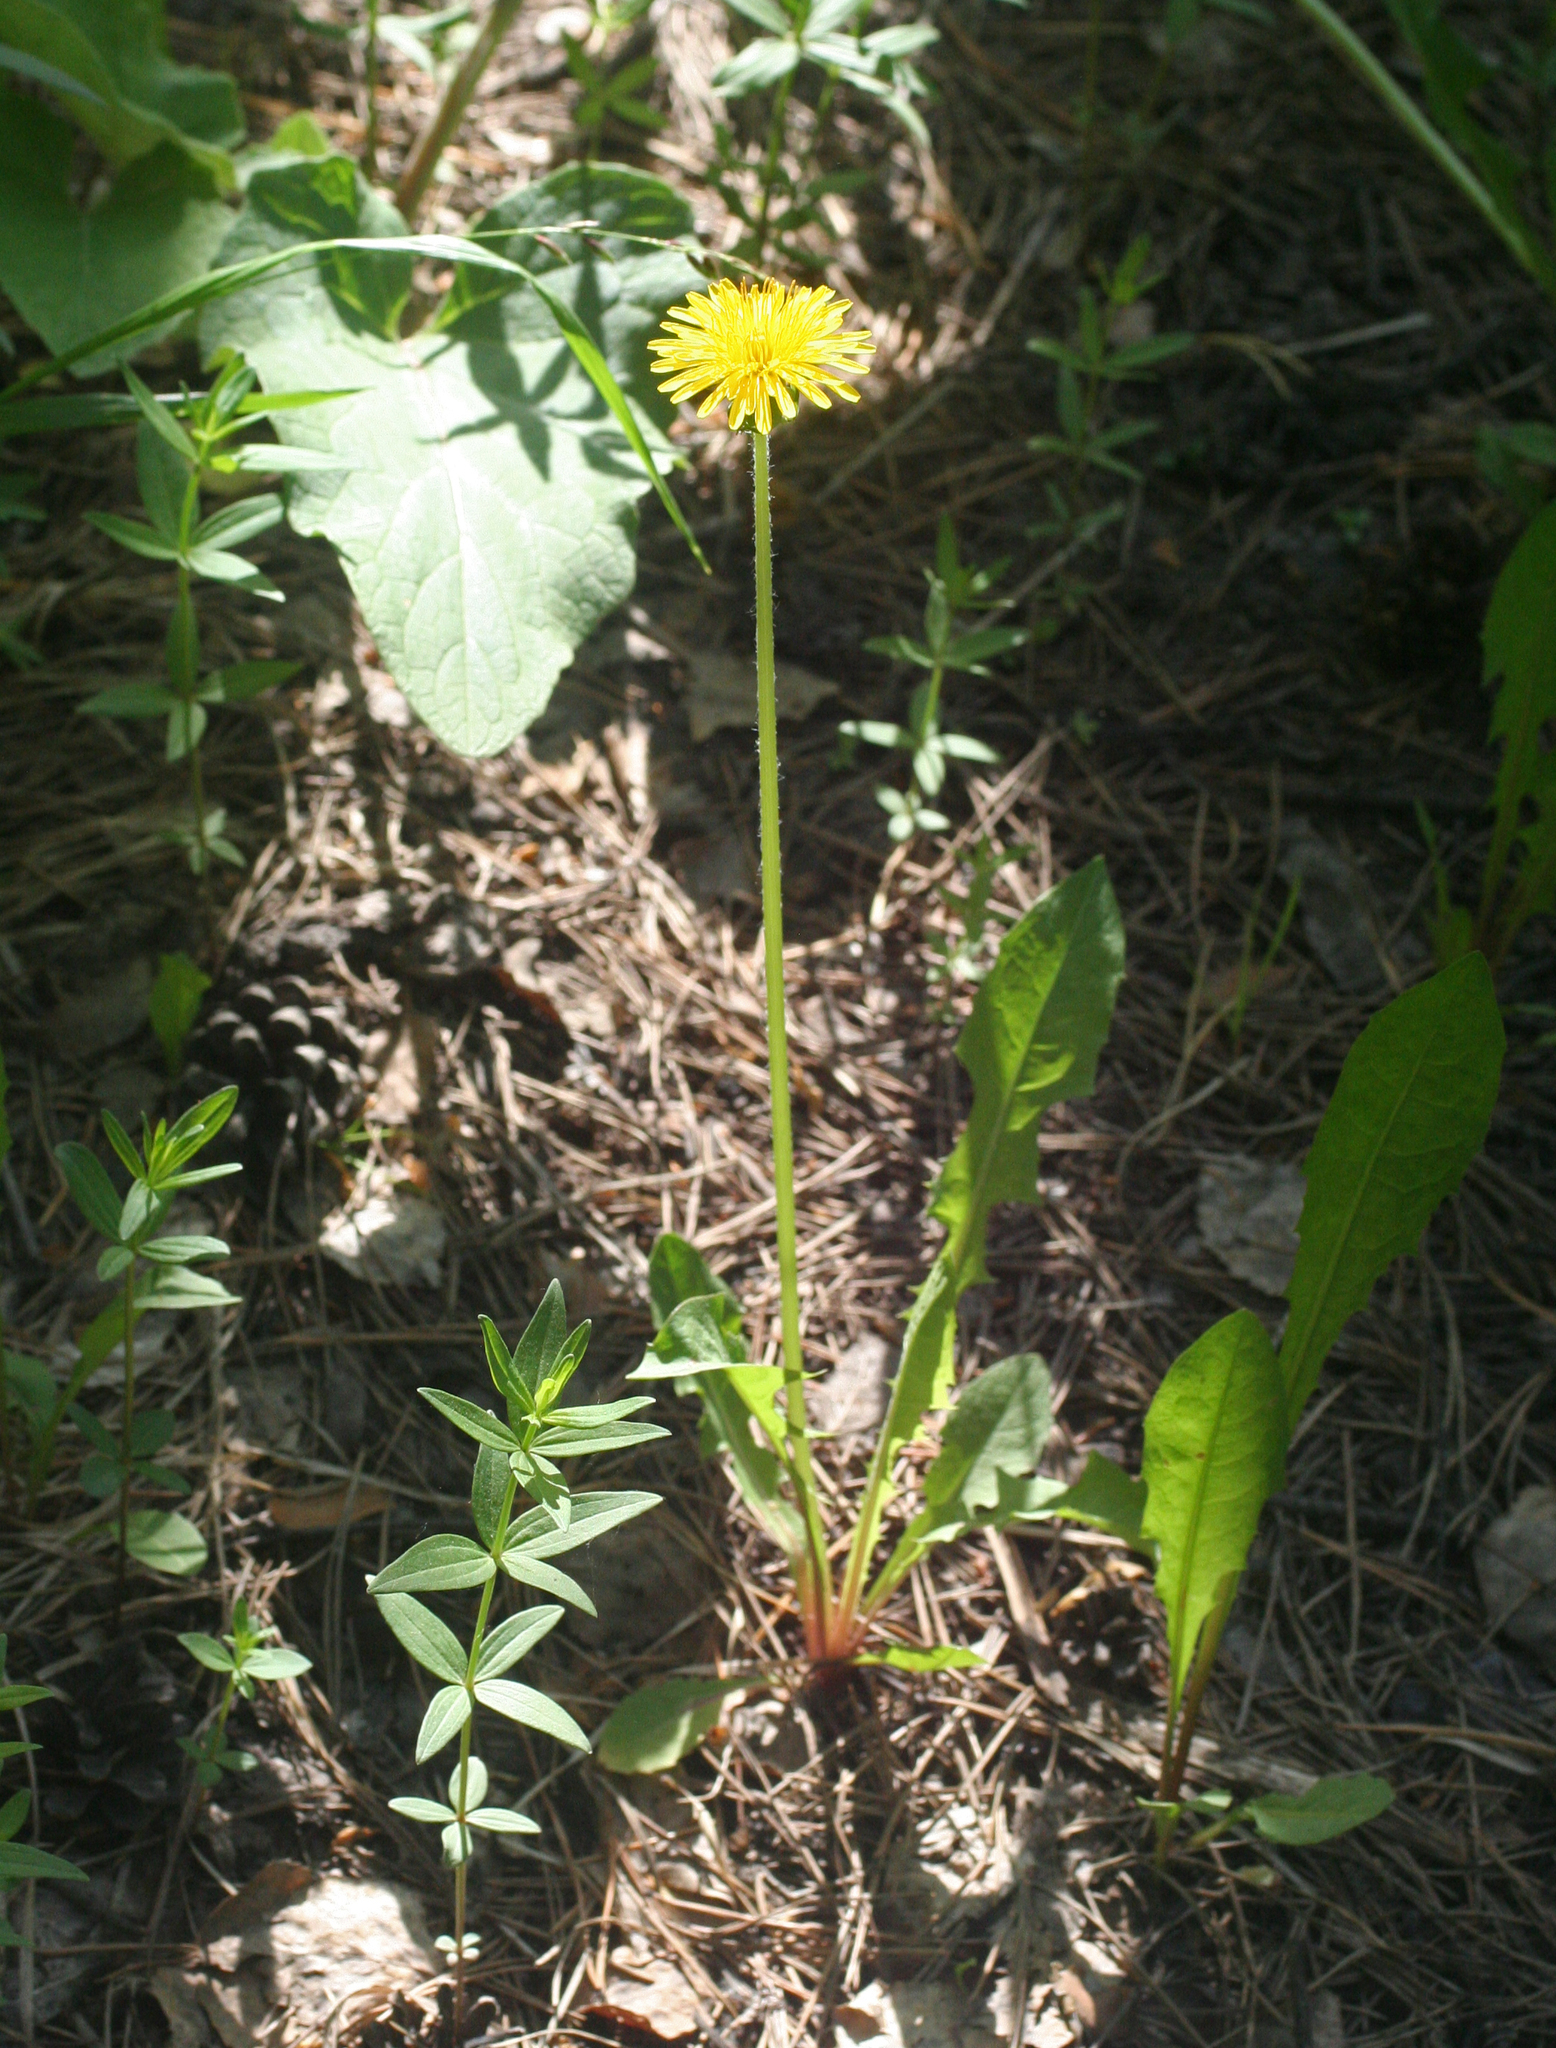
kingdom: Plantae
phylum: Tracheophyta
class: Magnoliopsida
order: Asterales
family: Asteraceae
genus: Taraxacum
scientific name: Taraxacum officinale
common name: Common dandelion
